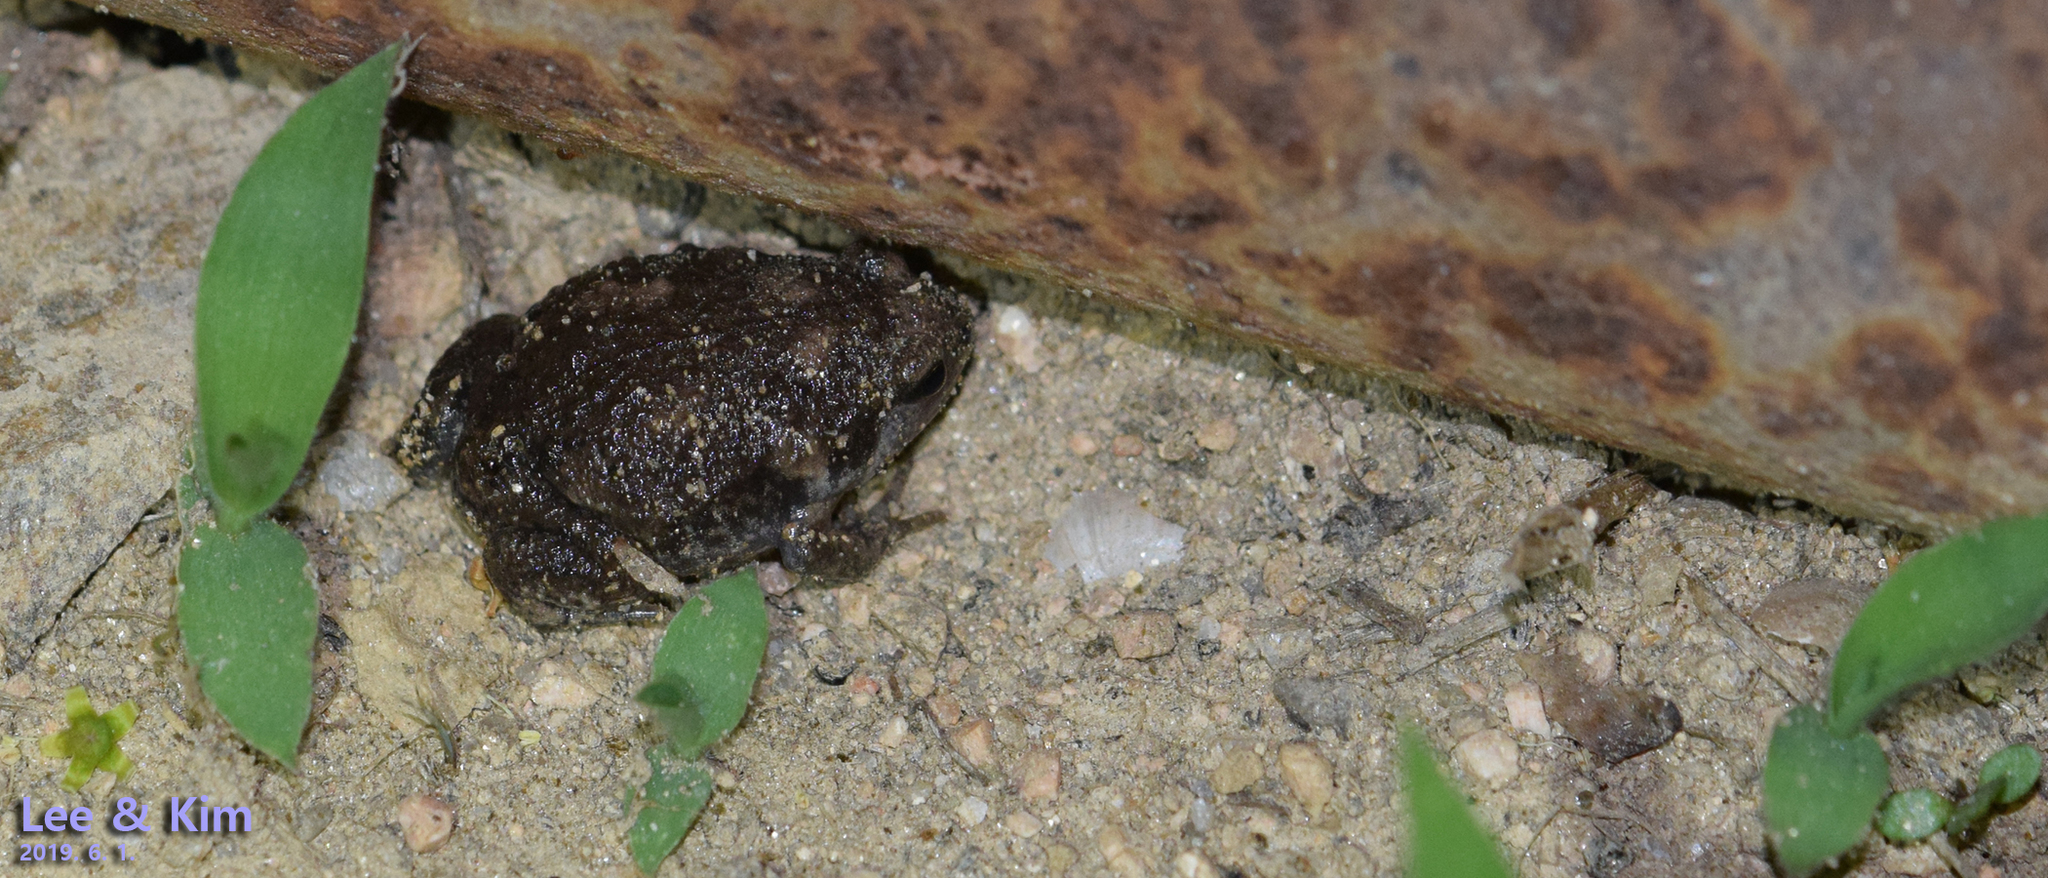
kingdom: Animalia
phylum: Chordata
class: Amphibia
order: Anura
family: Microhylidae
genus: Kaloula
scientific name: Kaloula borealis
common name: Boreal digging frog
